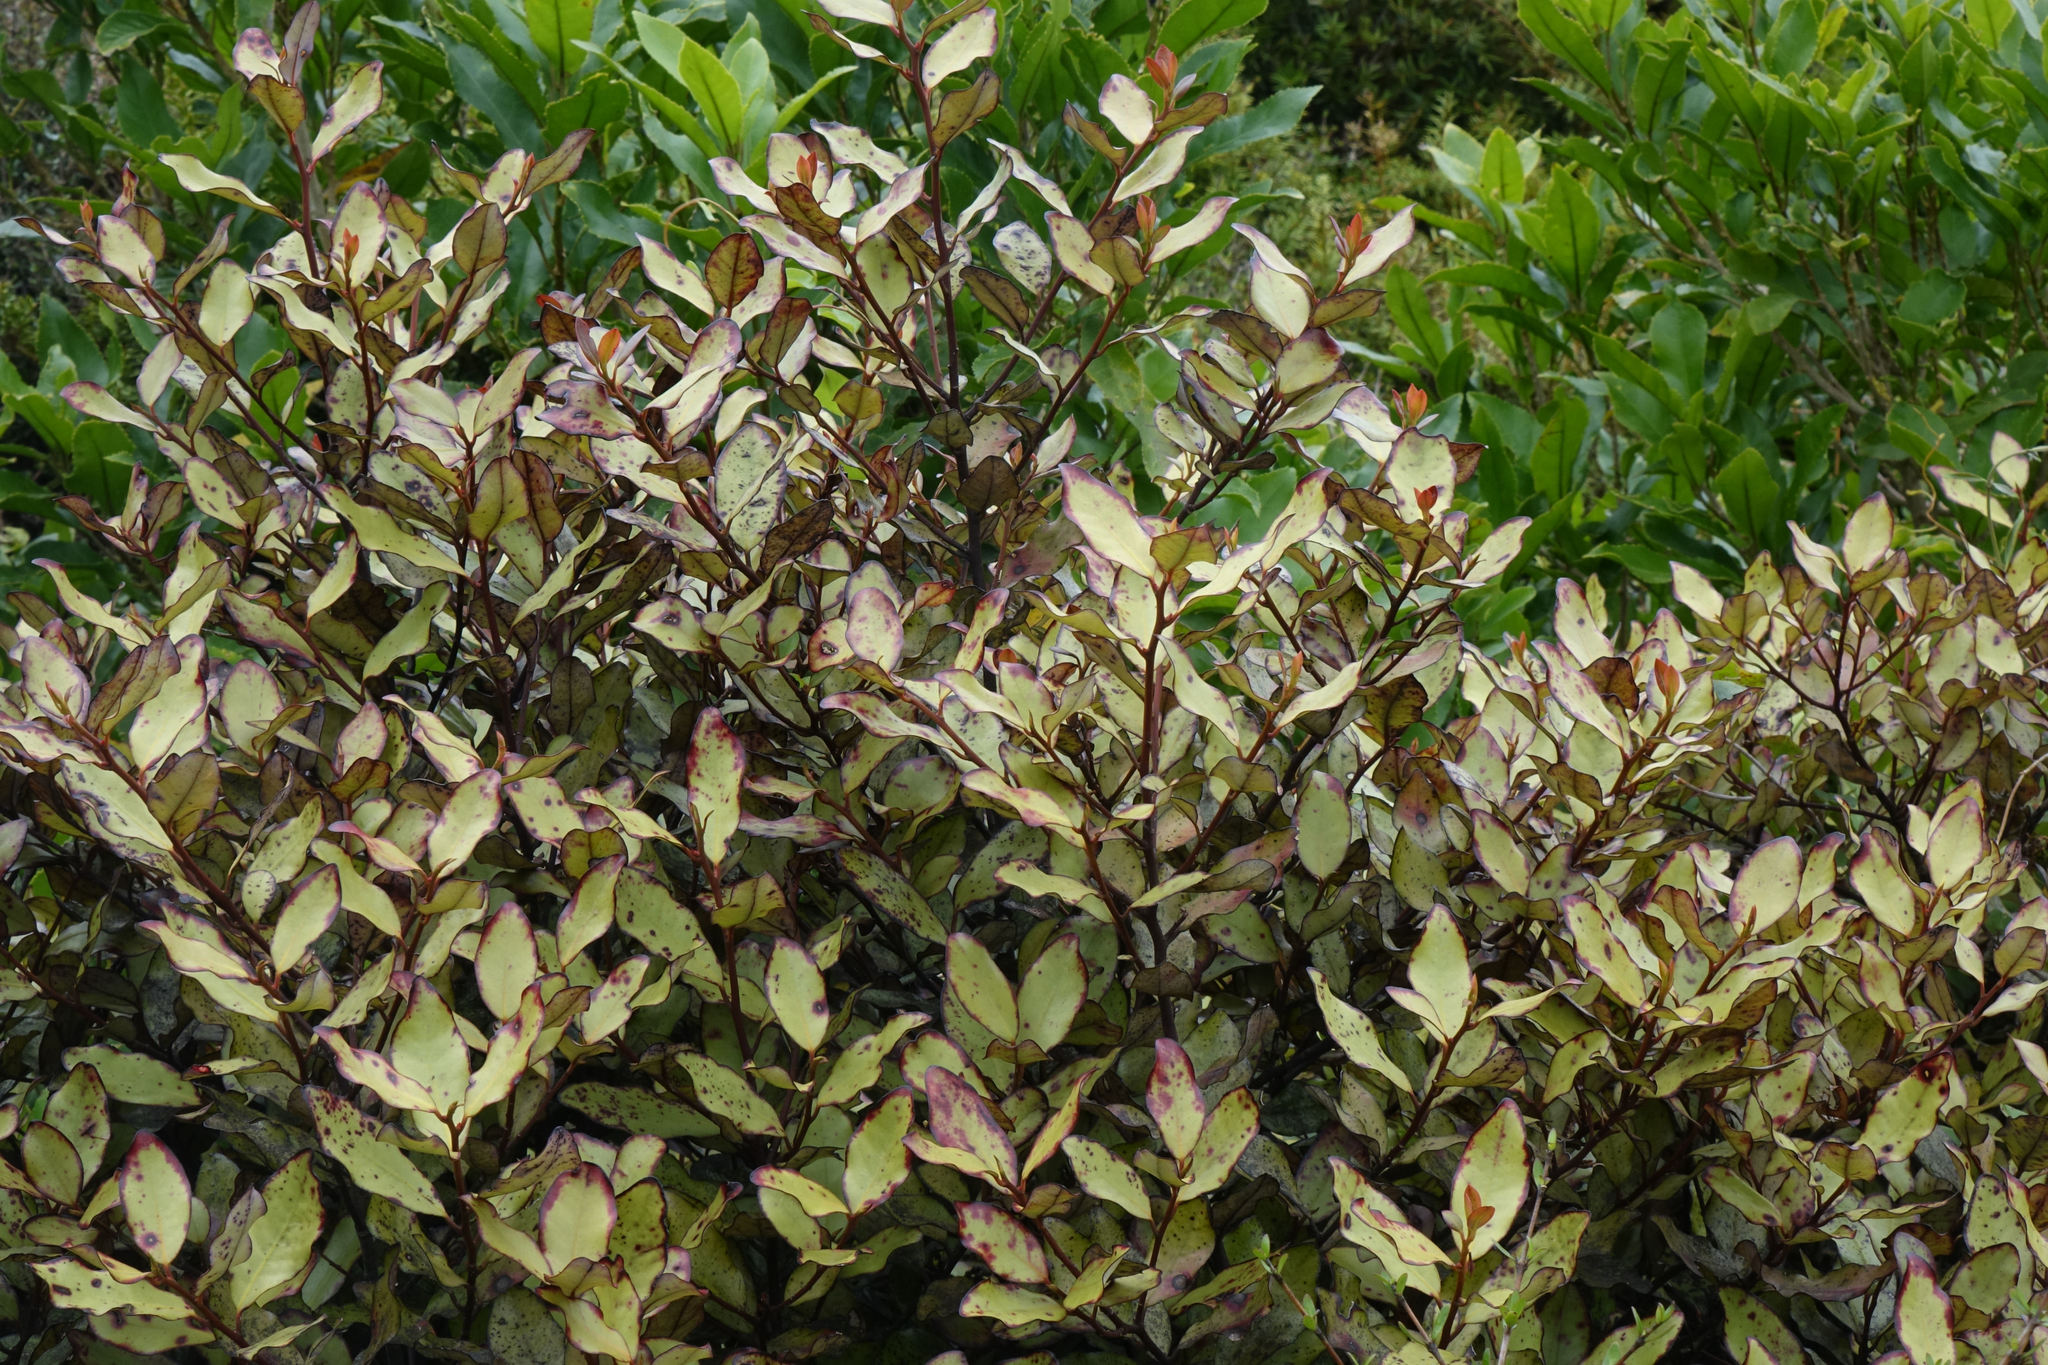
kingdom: Plantae
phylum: Tracheophyta
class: Magnoliopsida
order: Canellales
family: Winteraceae
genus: Pseudowintera
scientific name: Pseudowintera colorata
